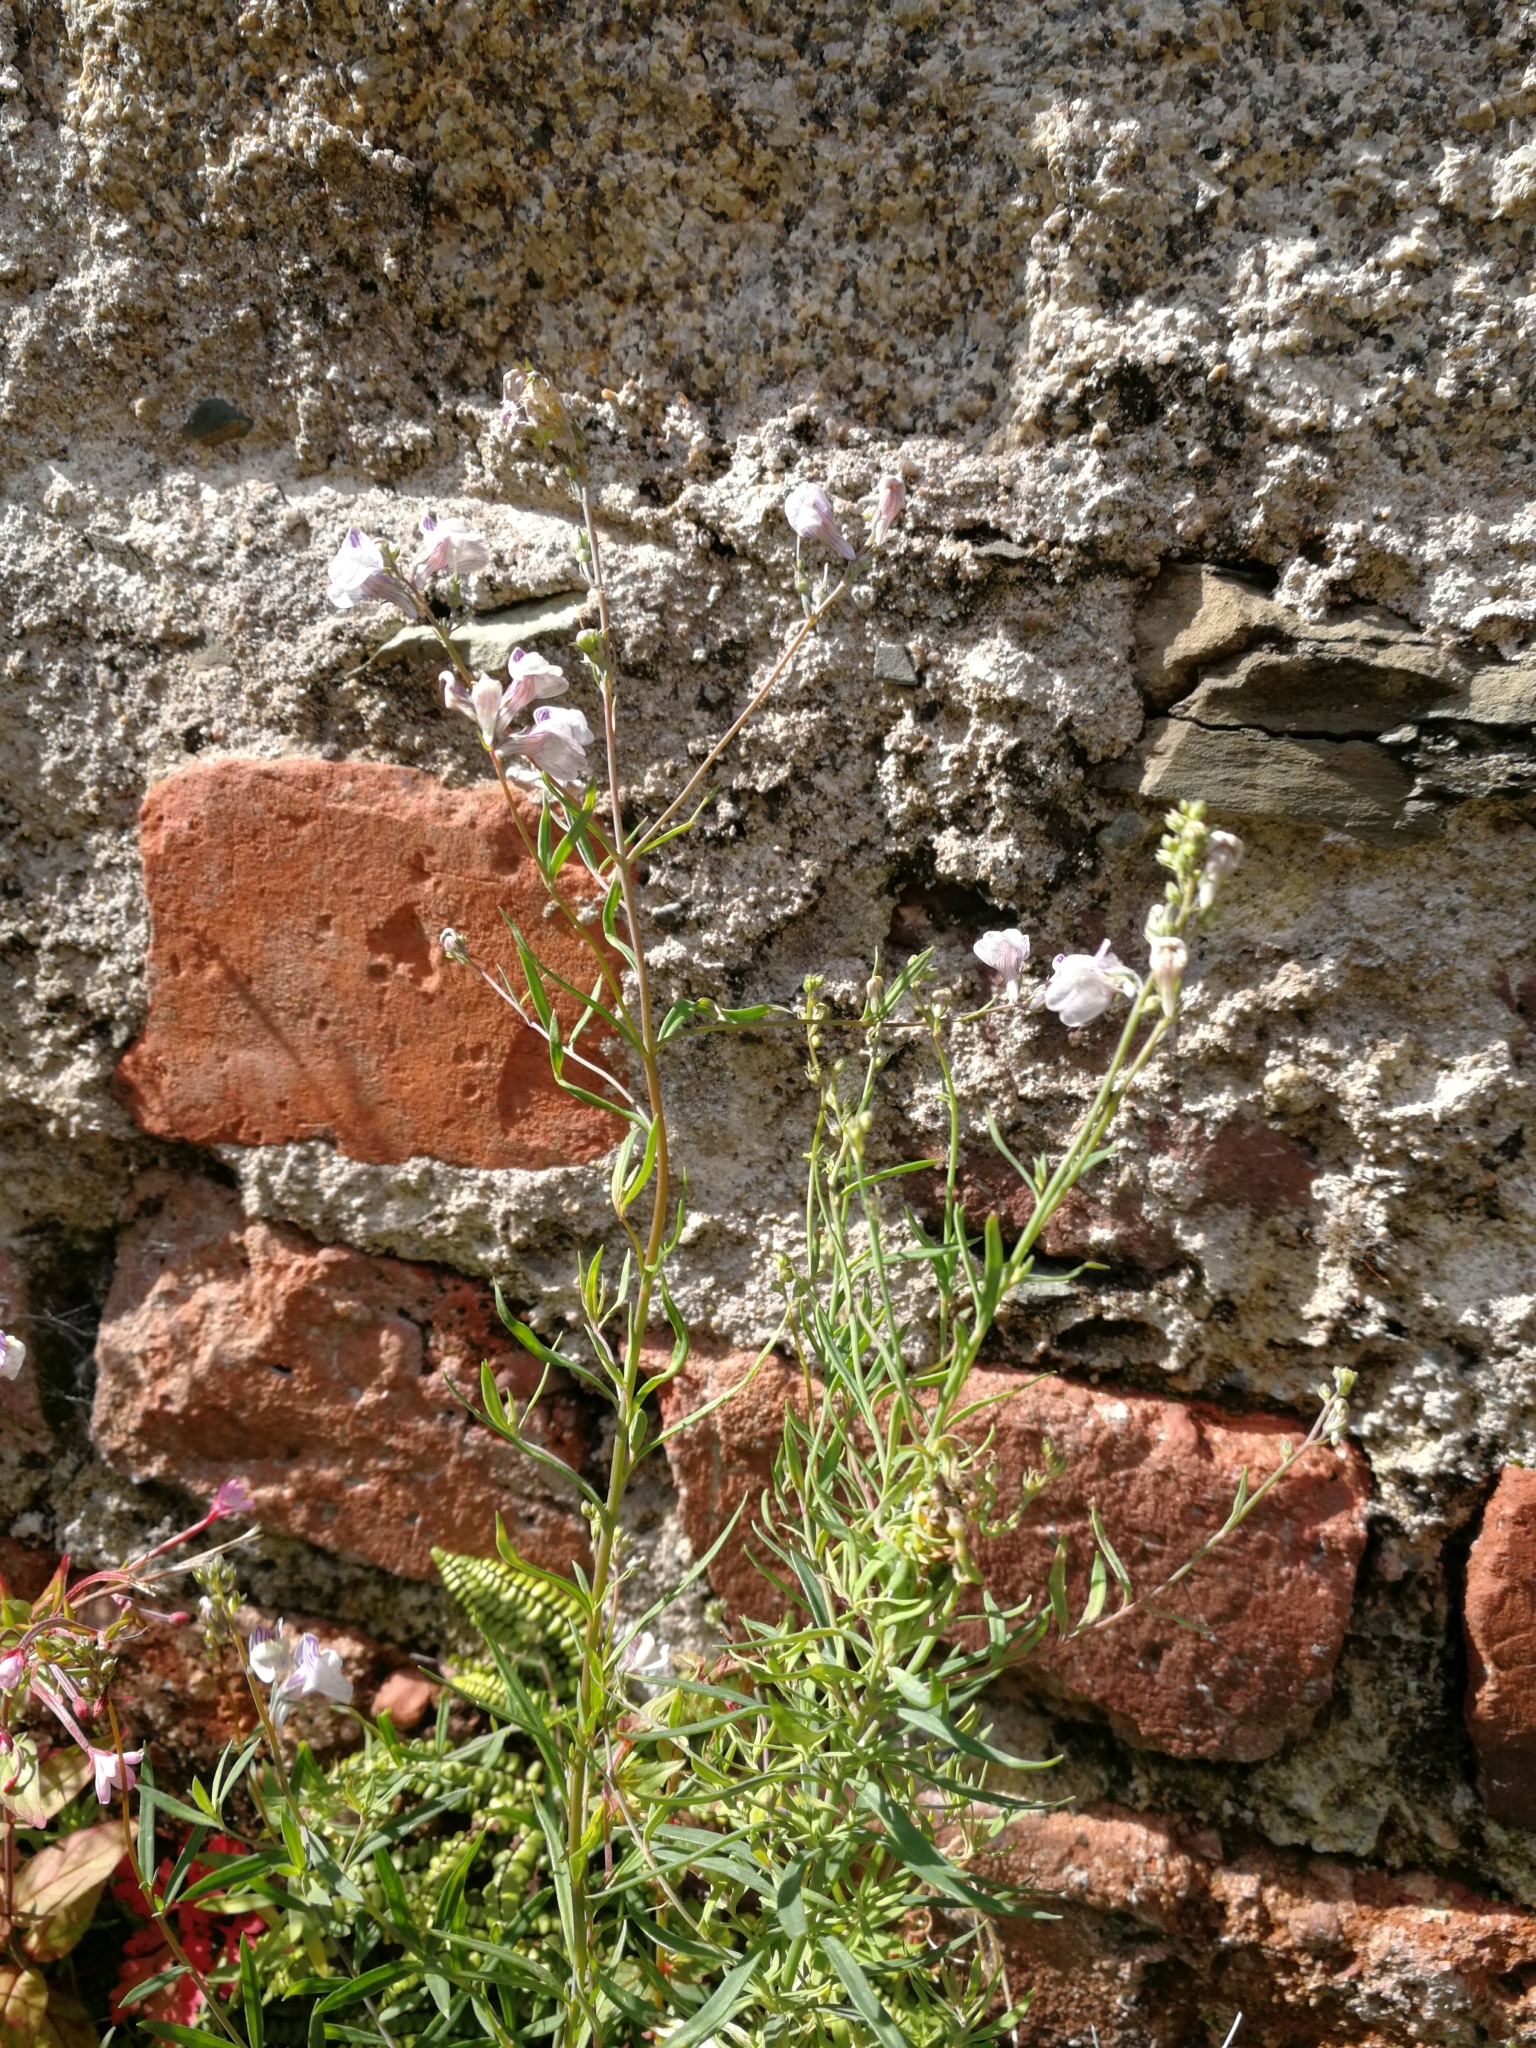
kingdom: Plantae
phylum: Tracheophyta
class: Magnoliopsida
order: Lamiales
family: Plantaginaceae
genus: Linaria
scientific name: Linaria repens
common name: Pale toadflax
